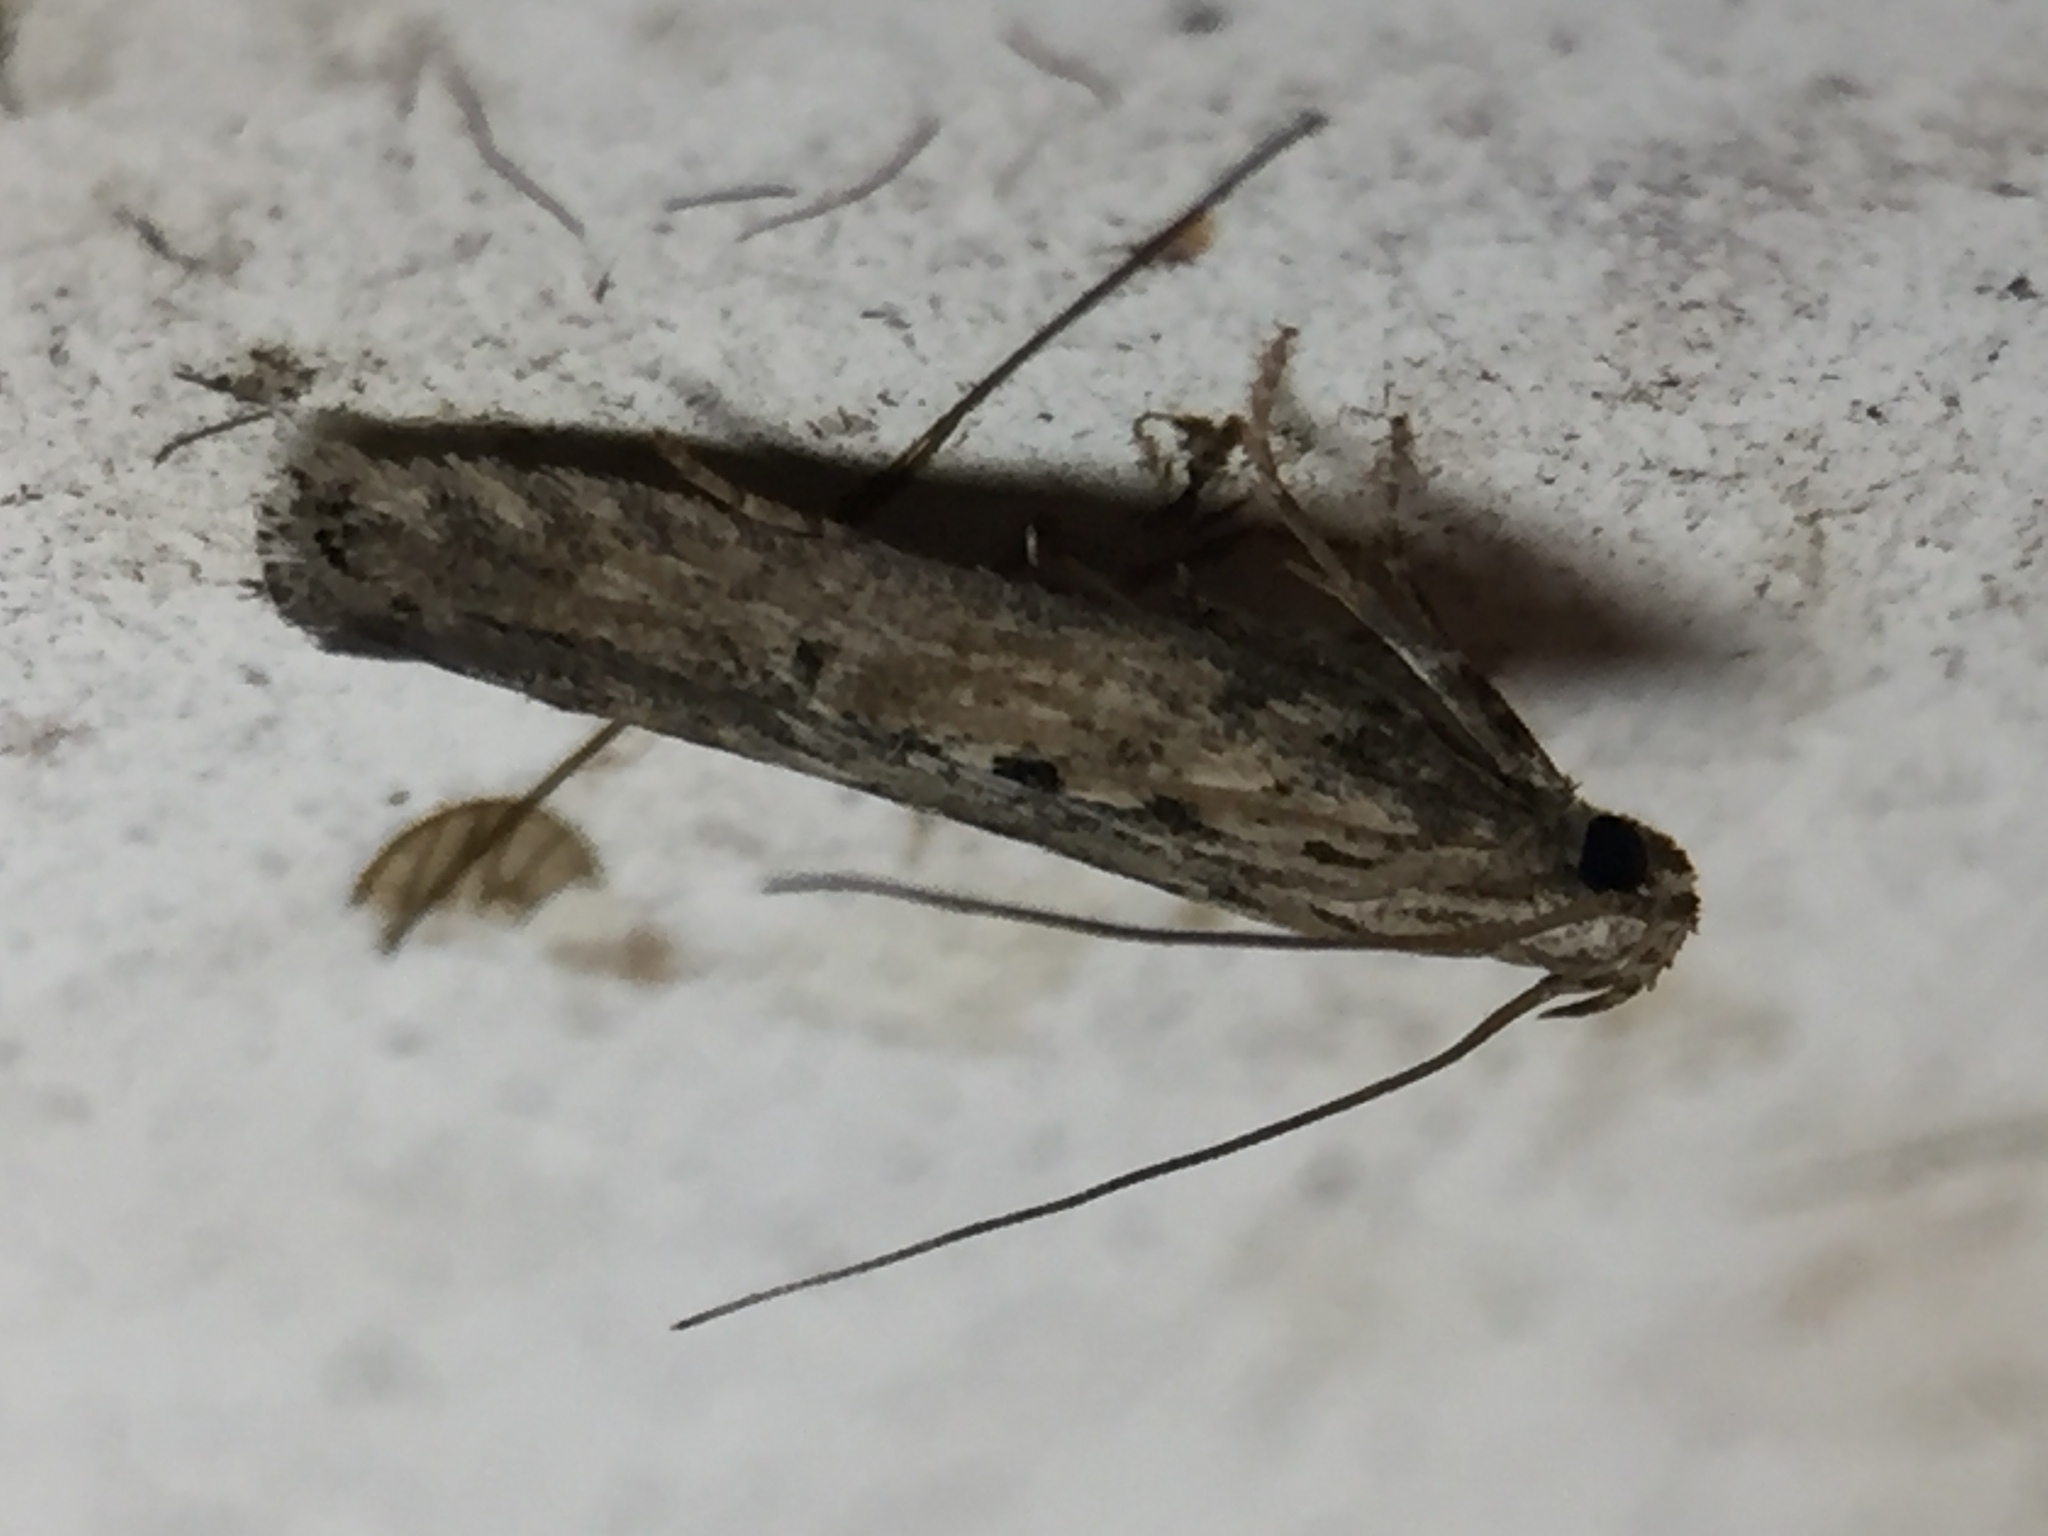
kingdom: Animalia
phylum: Arthropoda
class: Insecta
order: Lepidoptera
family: Gelechiidae
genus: Phthorimaea
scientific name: Phthorimaea operculella
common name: Potato tuber moth
